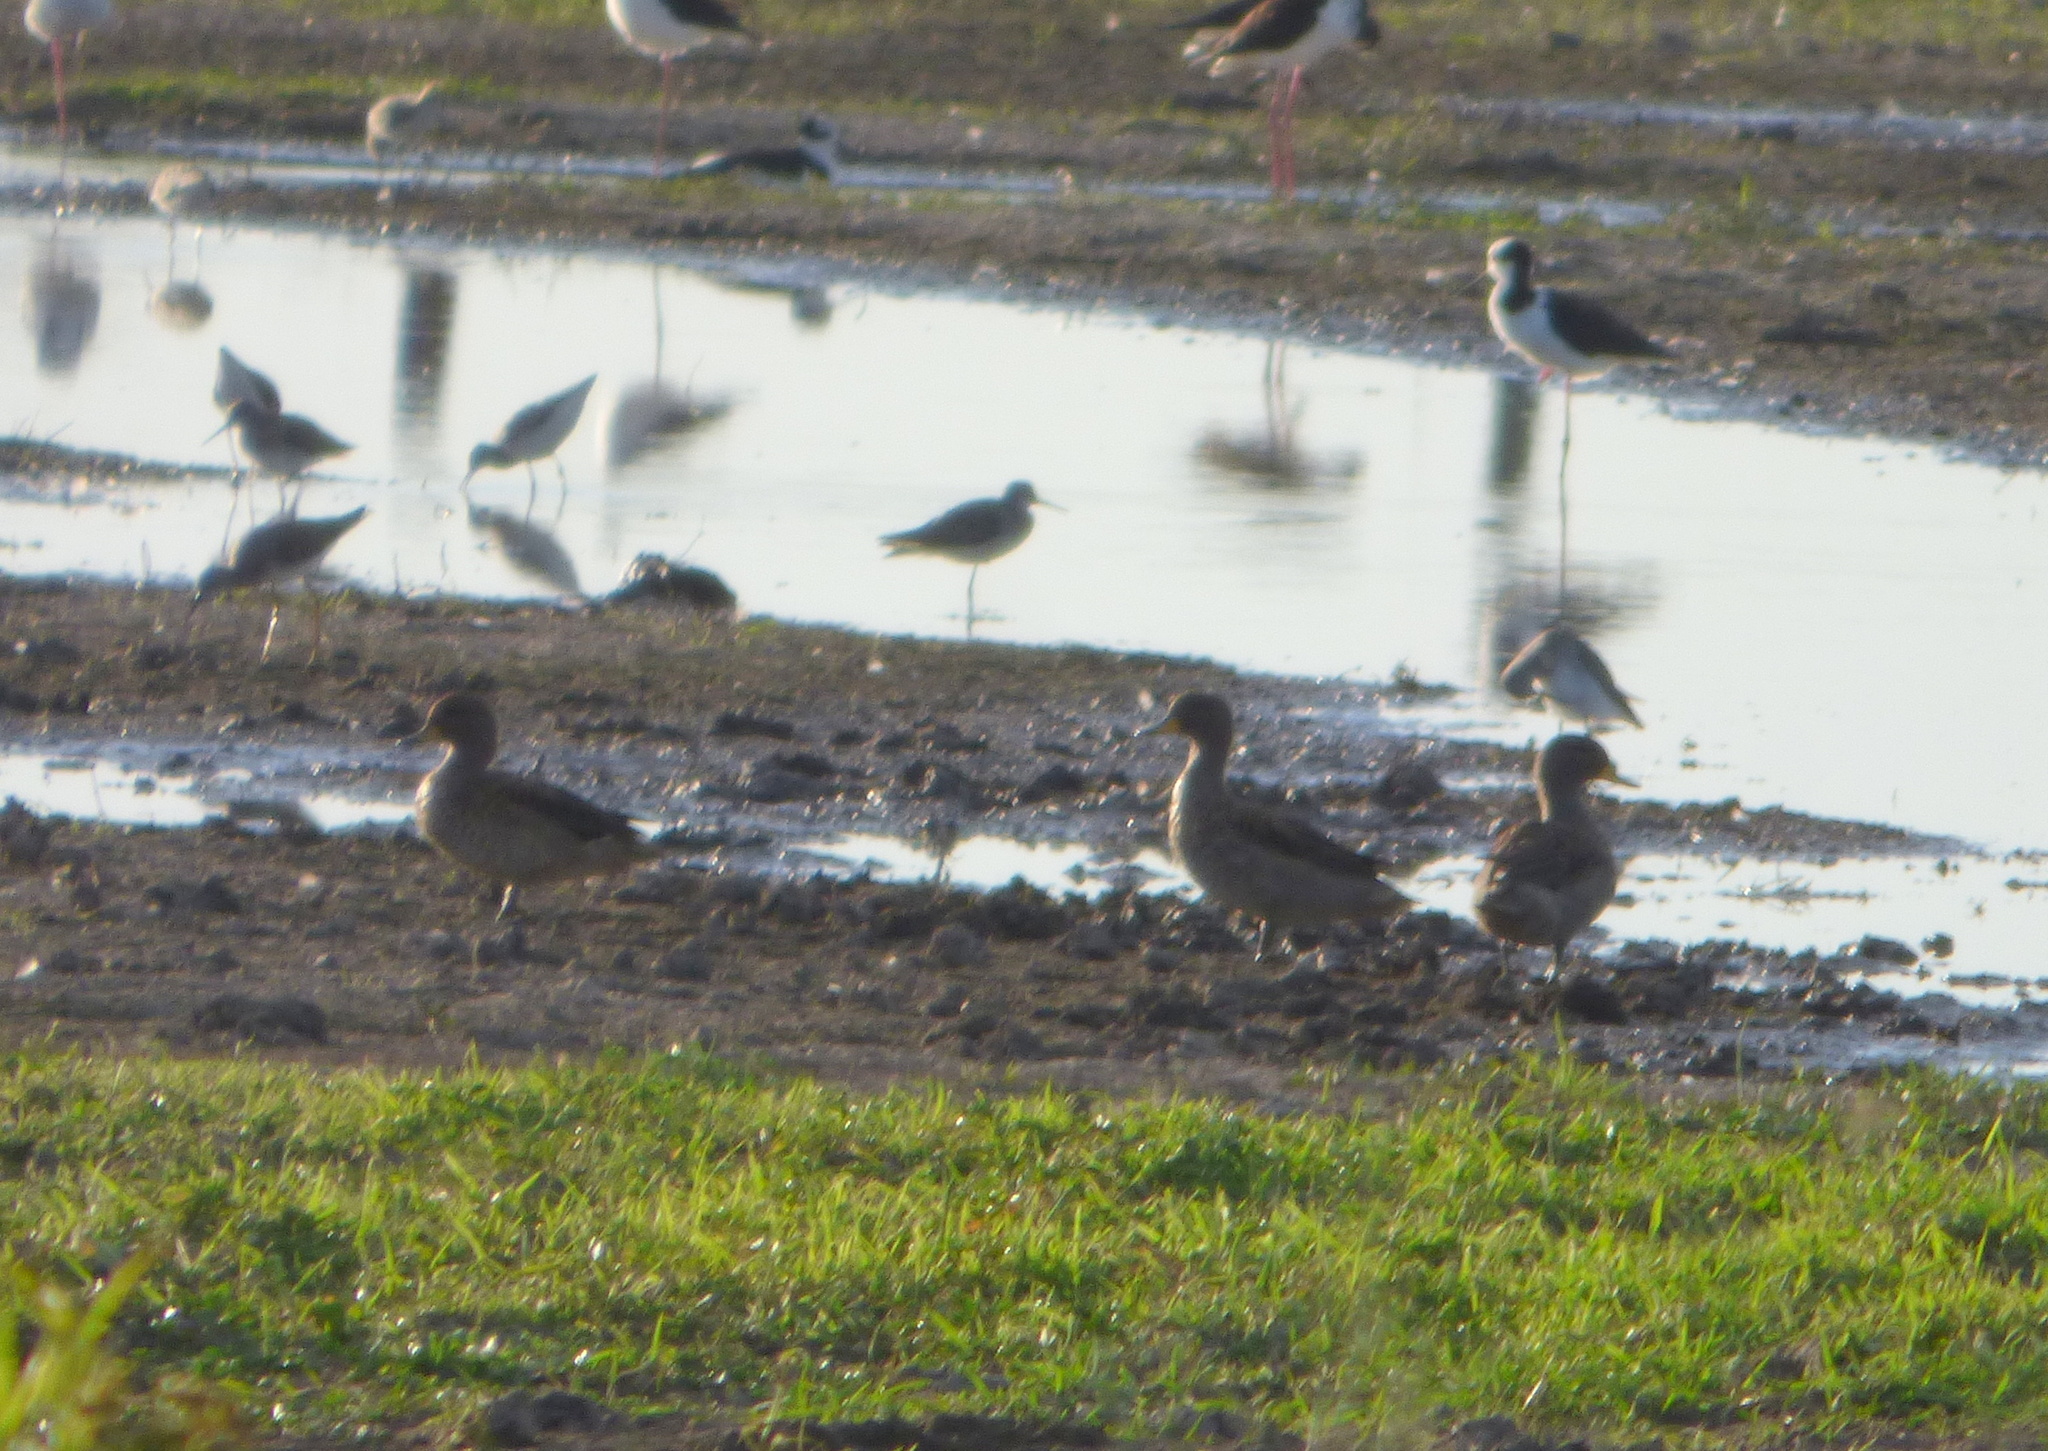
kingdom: Animalia
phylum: Chordata
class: Aves
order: Anseriformes
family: Anatidae
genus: Anas
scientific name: Anas flavirostris
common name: Yellow-billed teal
